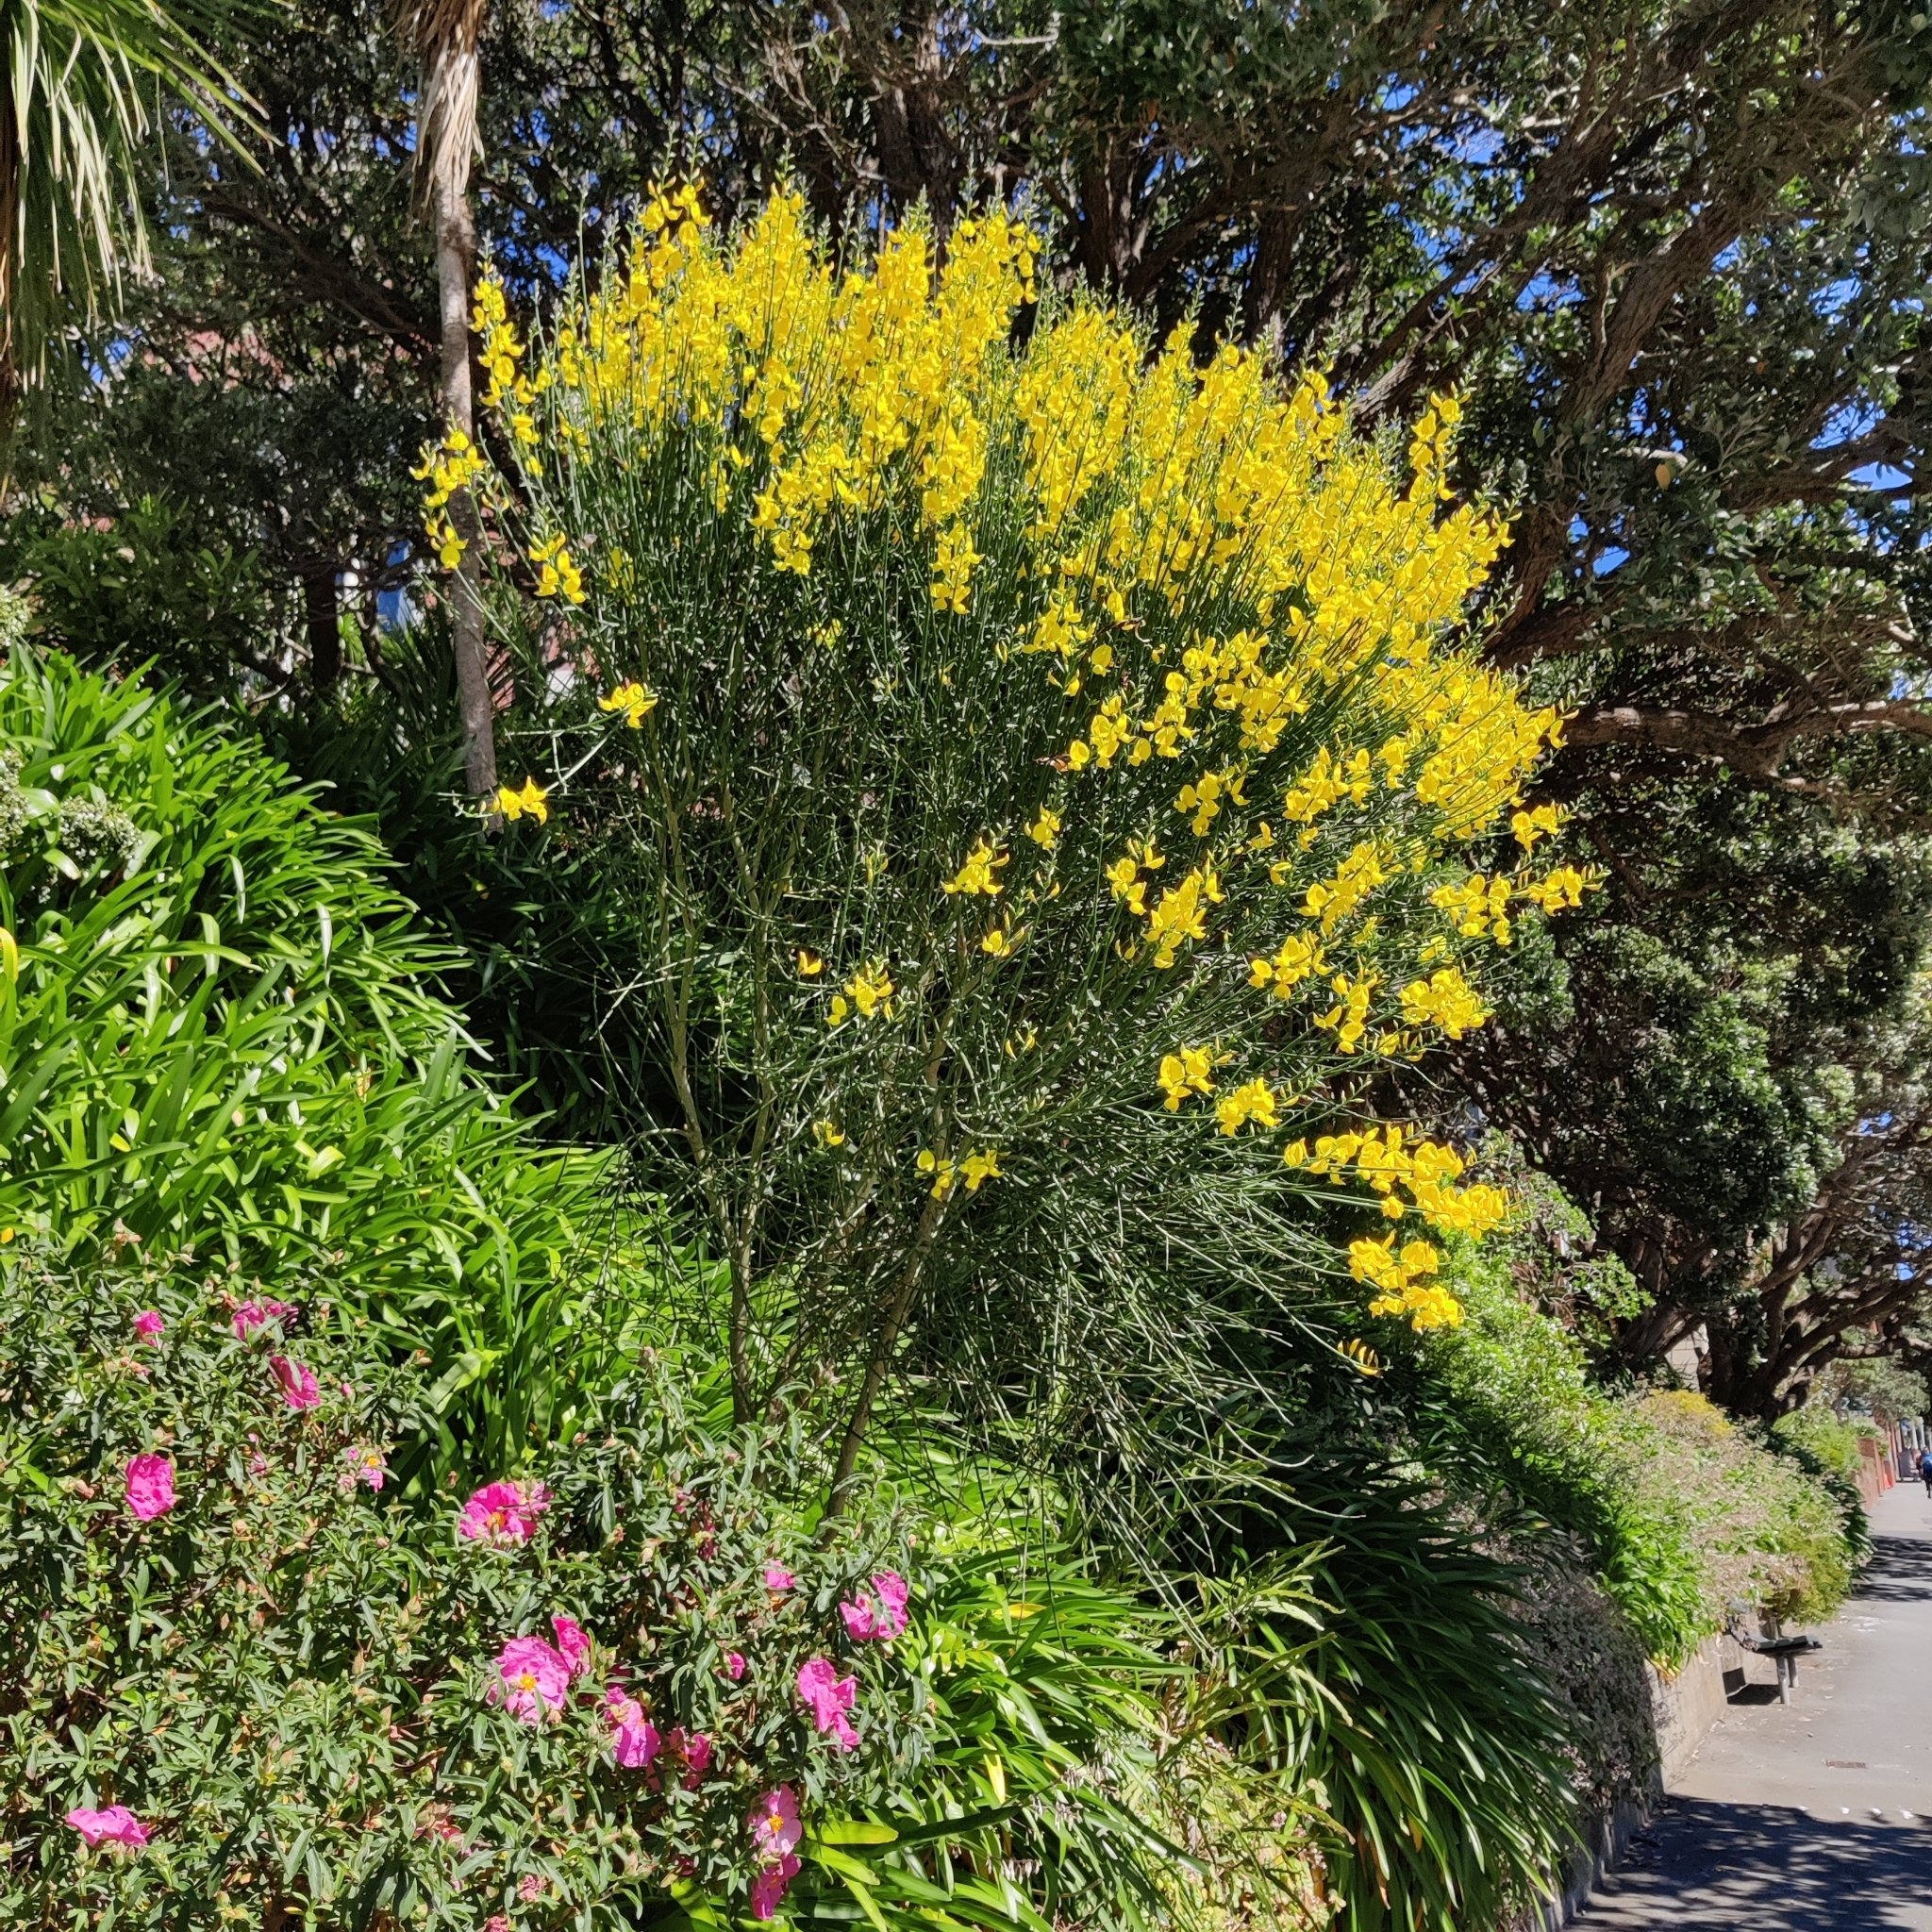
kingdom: Plantae
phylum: Tracheophyta
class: Magnoliopsida
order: Fabales
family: Fabaceae
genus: Spartium
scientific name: Spartium junceum
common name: Spanish broom
